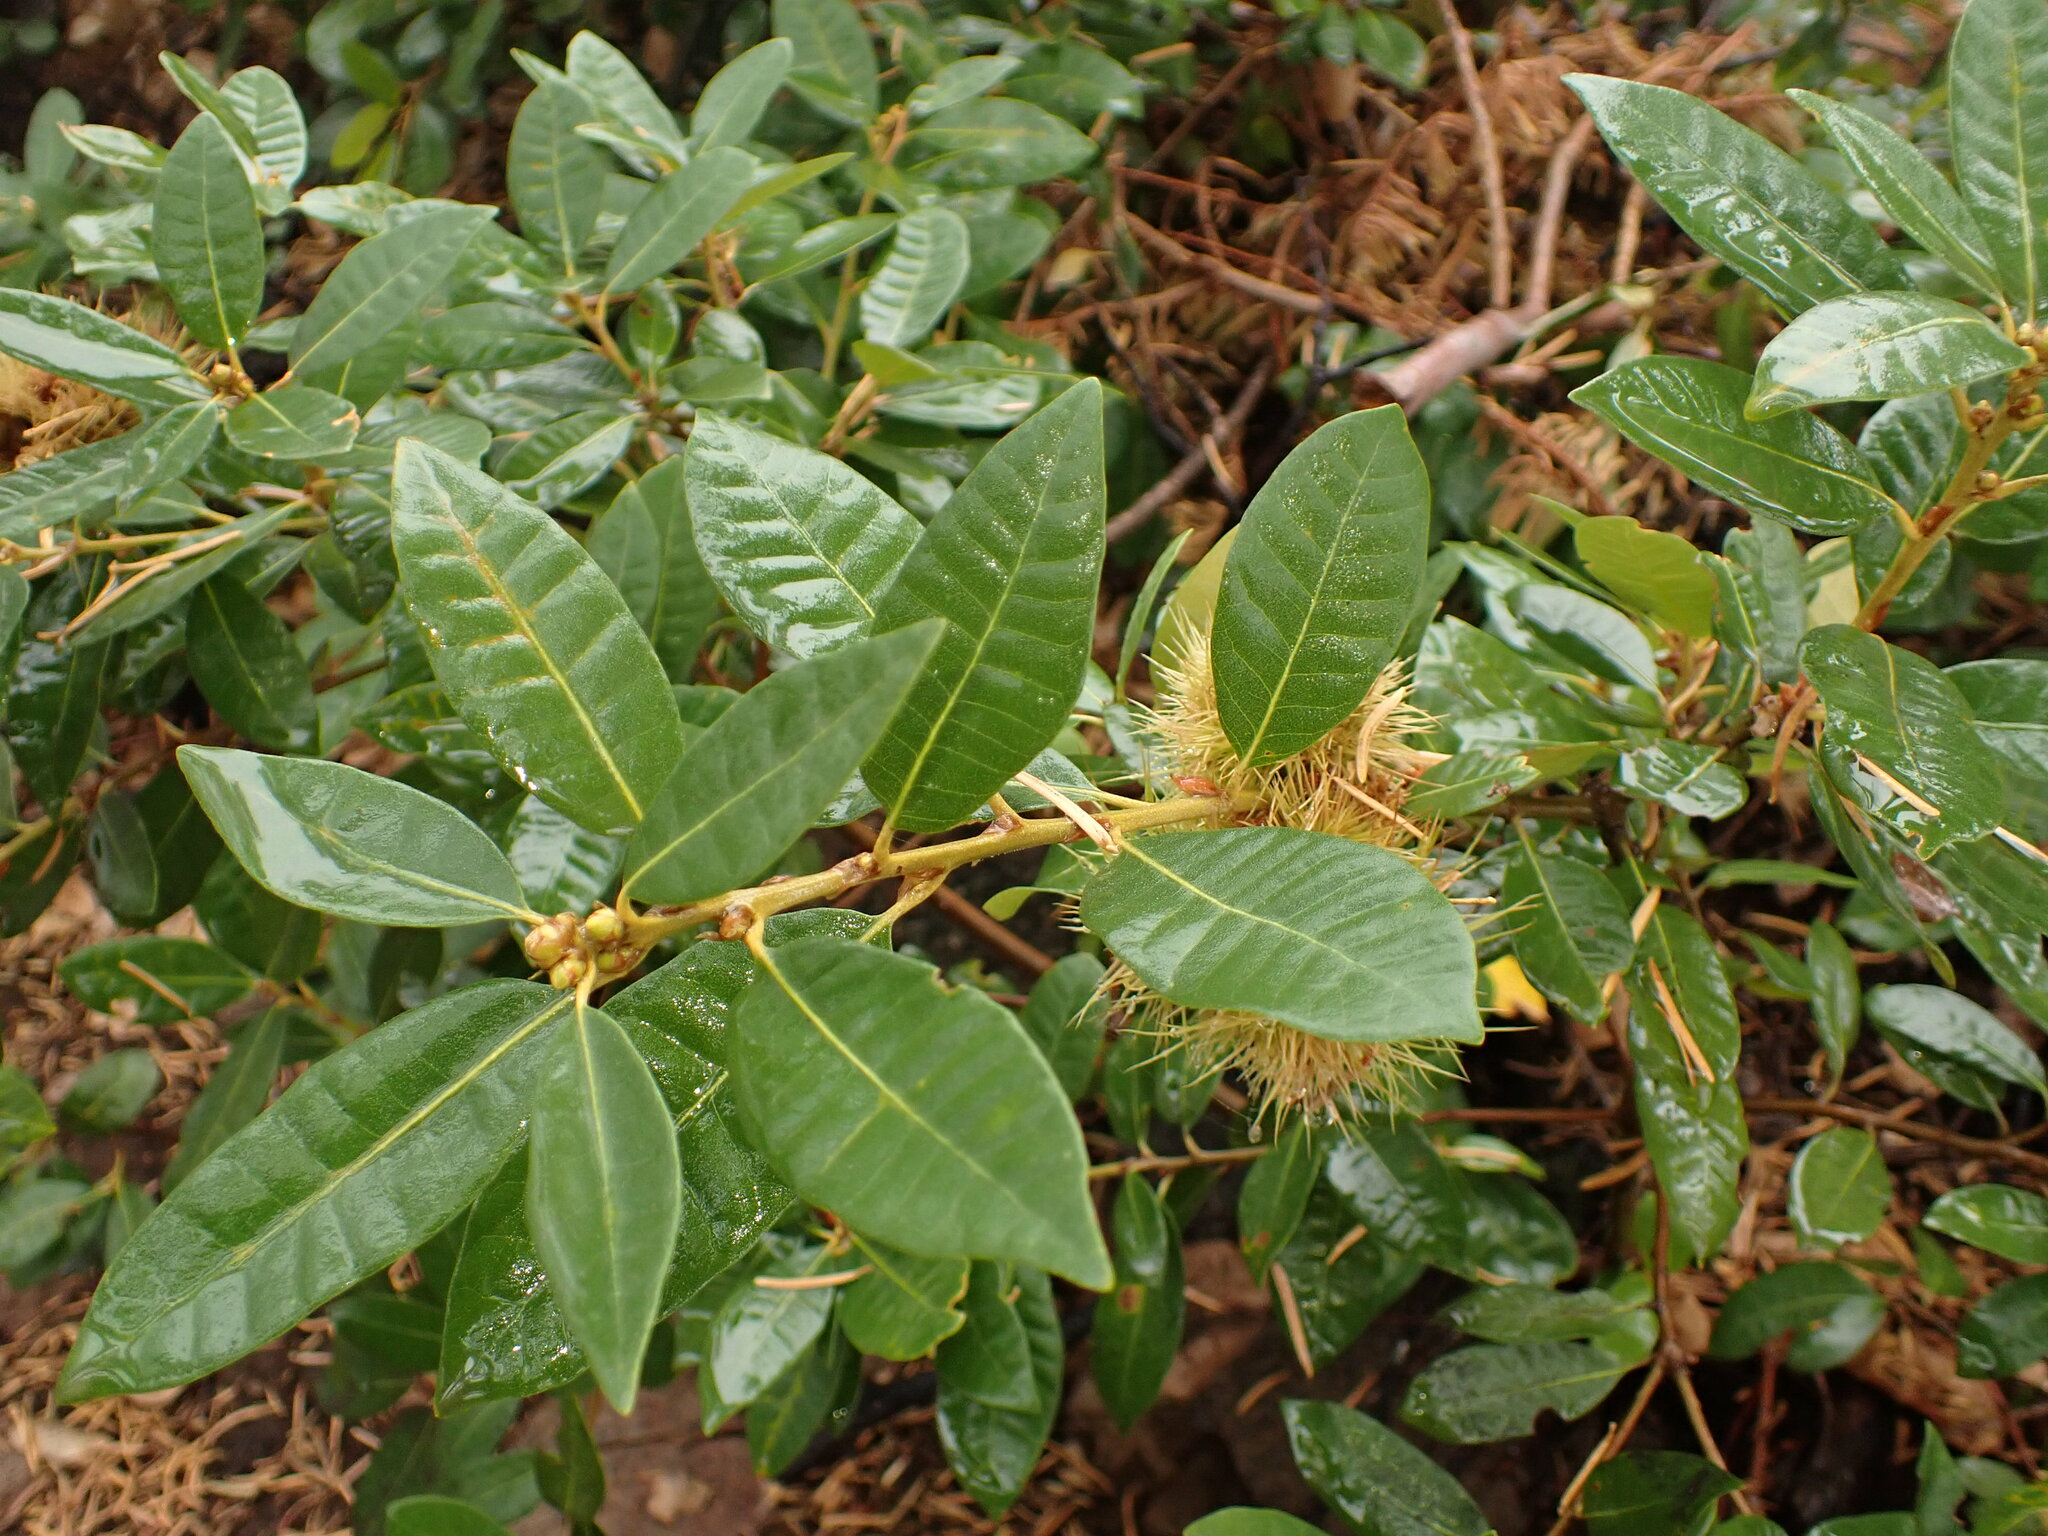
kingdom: Plantae
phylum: Tracheophyta
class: Magnoliopsida
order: Fagales
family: Fagaceae
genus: Chrysolepis
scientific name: Chrysolepis sempervirens
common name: Bush chinquapin
